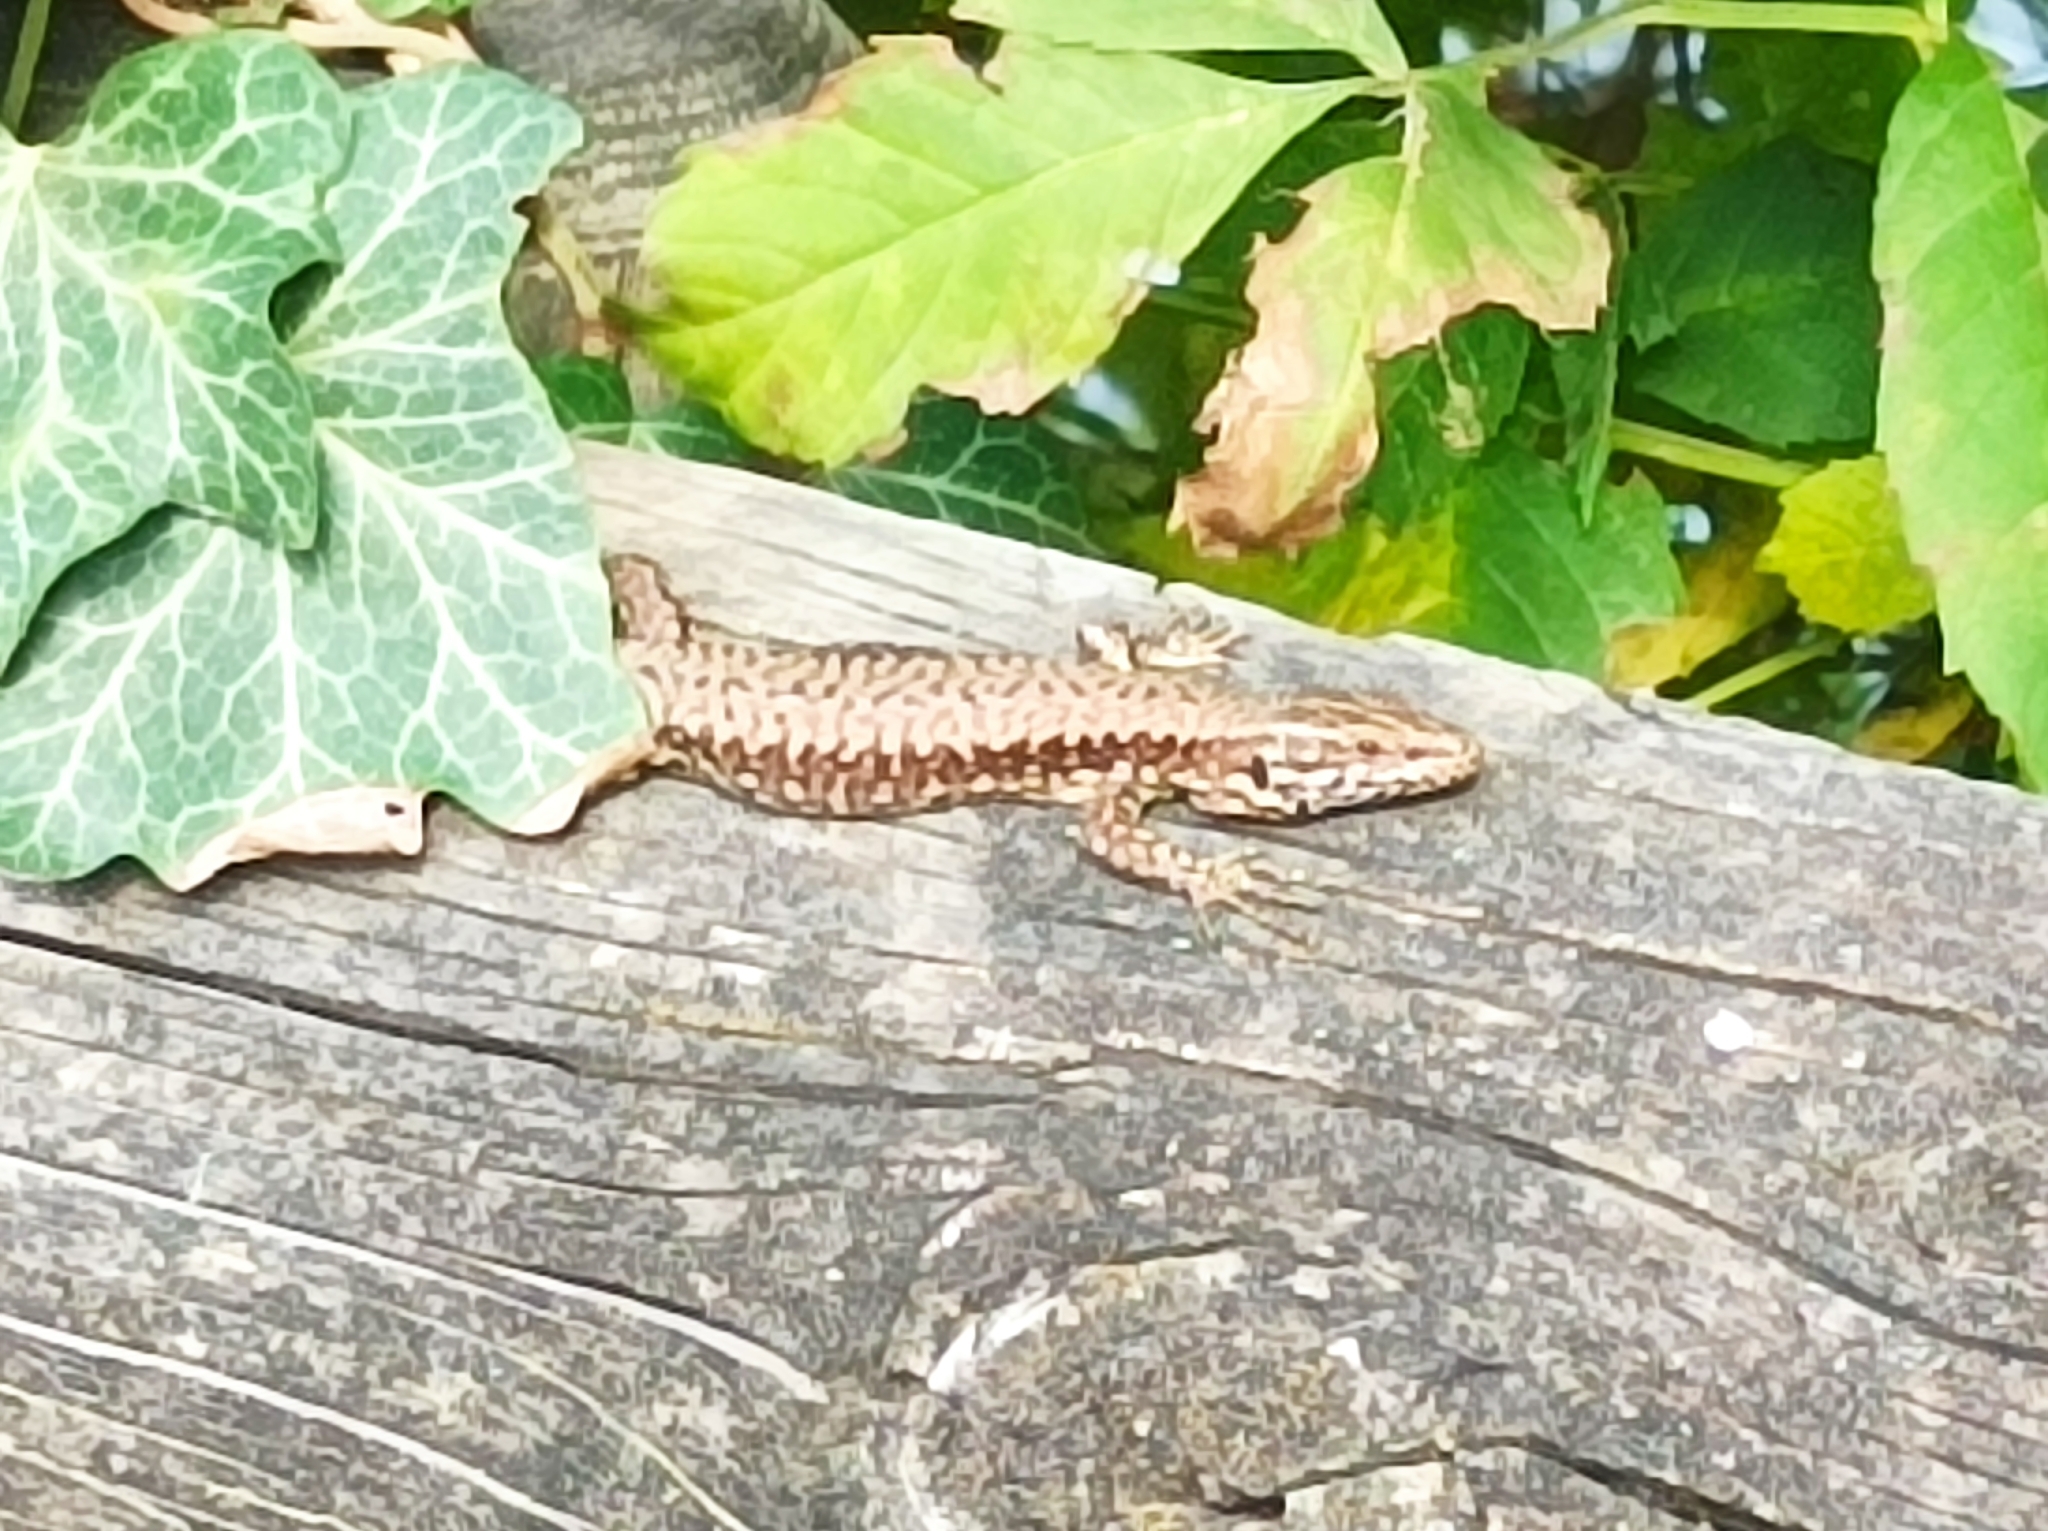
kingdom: Animalia
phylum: Chordata
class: Squamata
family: Lacertidae
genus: Podarcis
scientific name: Podarcis muralis
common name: Common wall lizard
